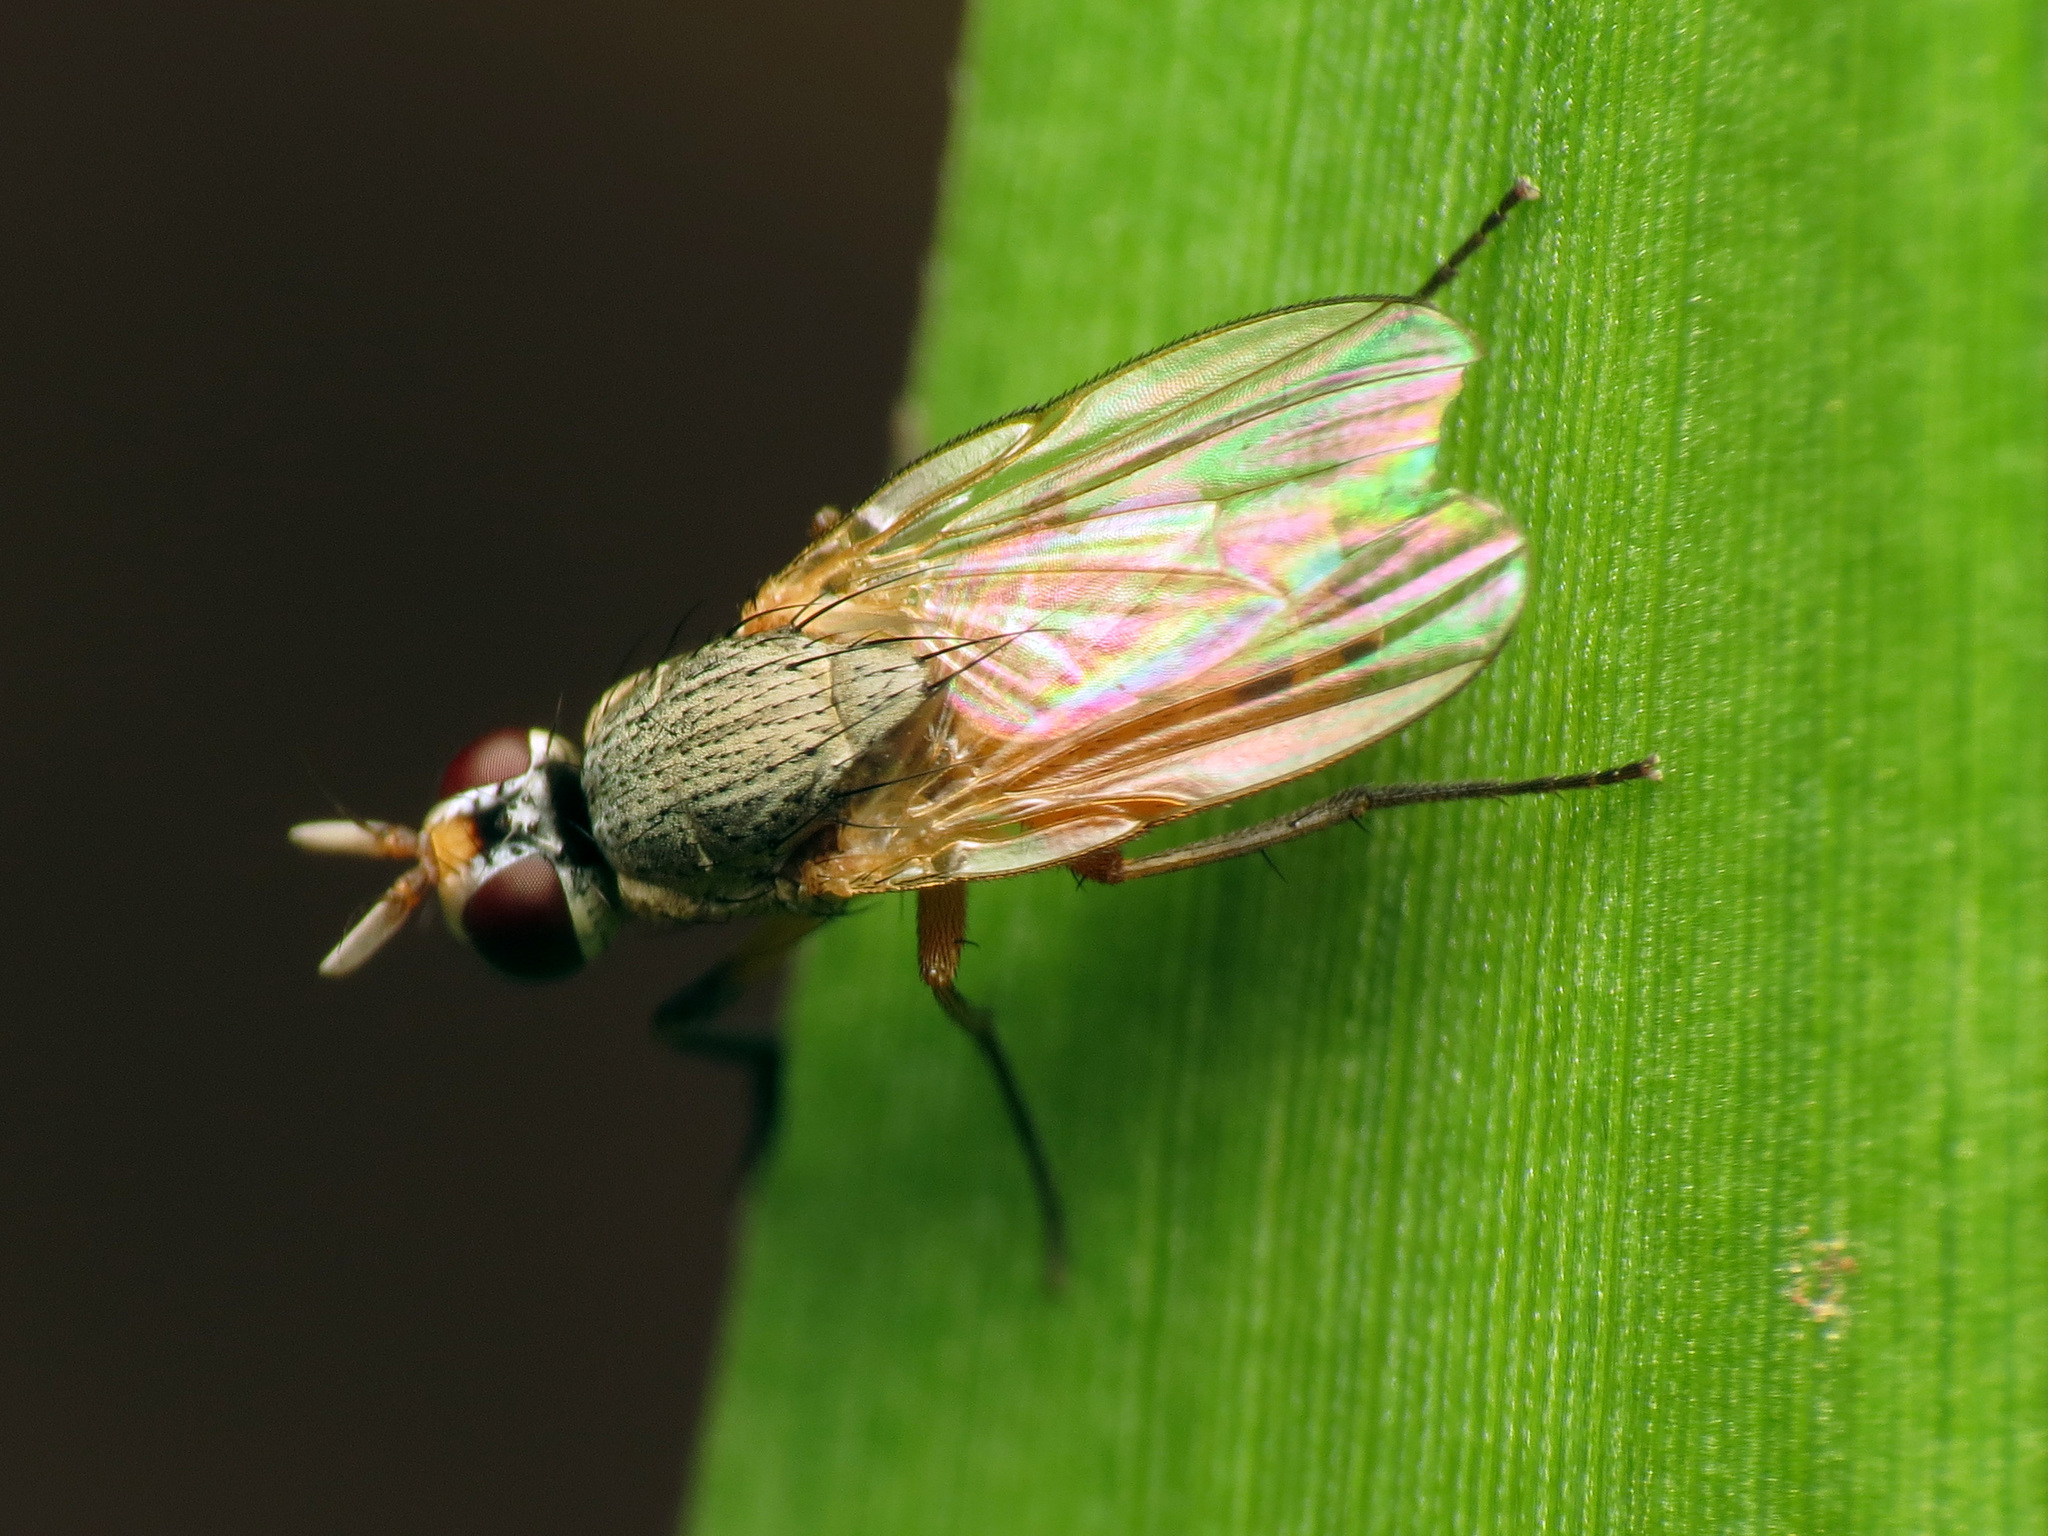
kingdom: Animalia
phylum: Arthropoda
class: Insecta
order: Diptera
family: Muscidae
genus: Atherigona
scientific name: Atherigona reversura
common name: Bermudagrass stem maggot
